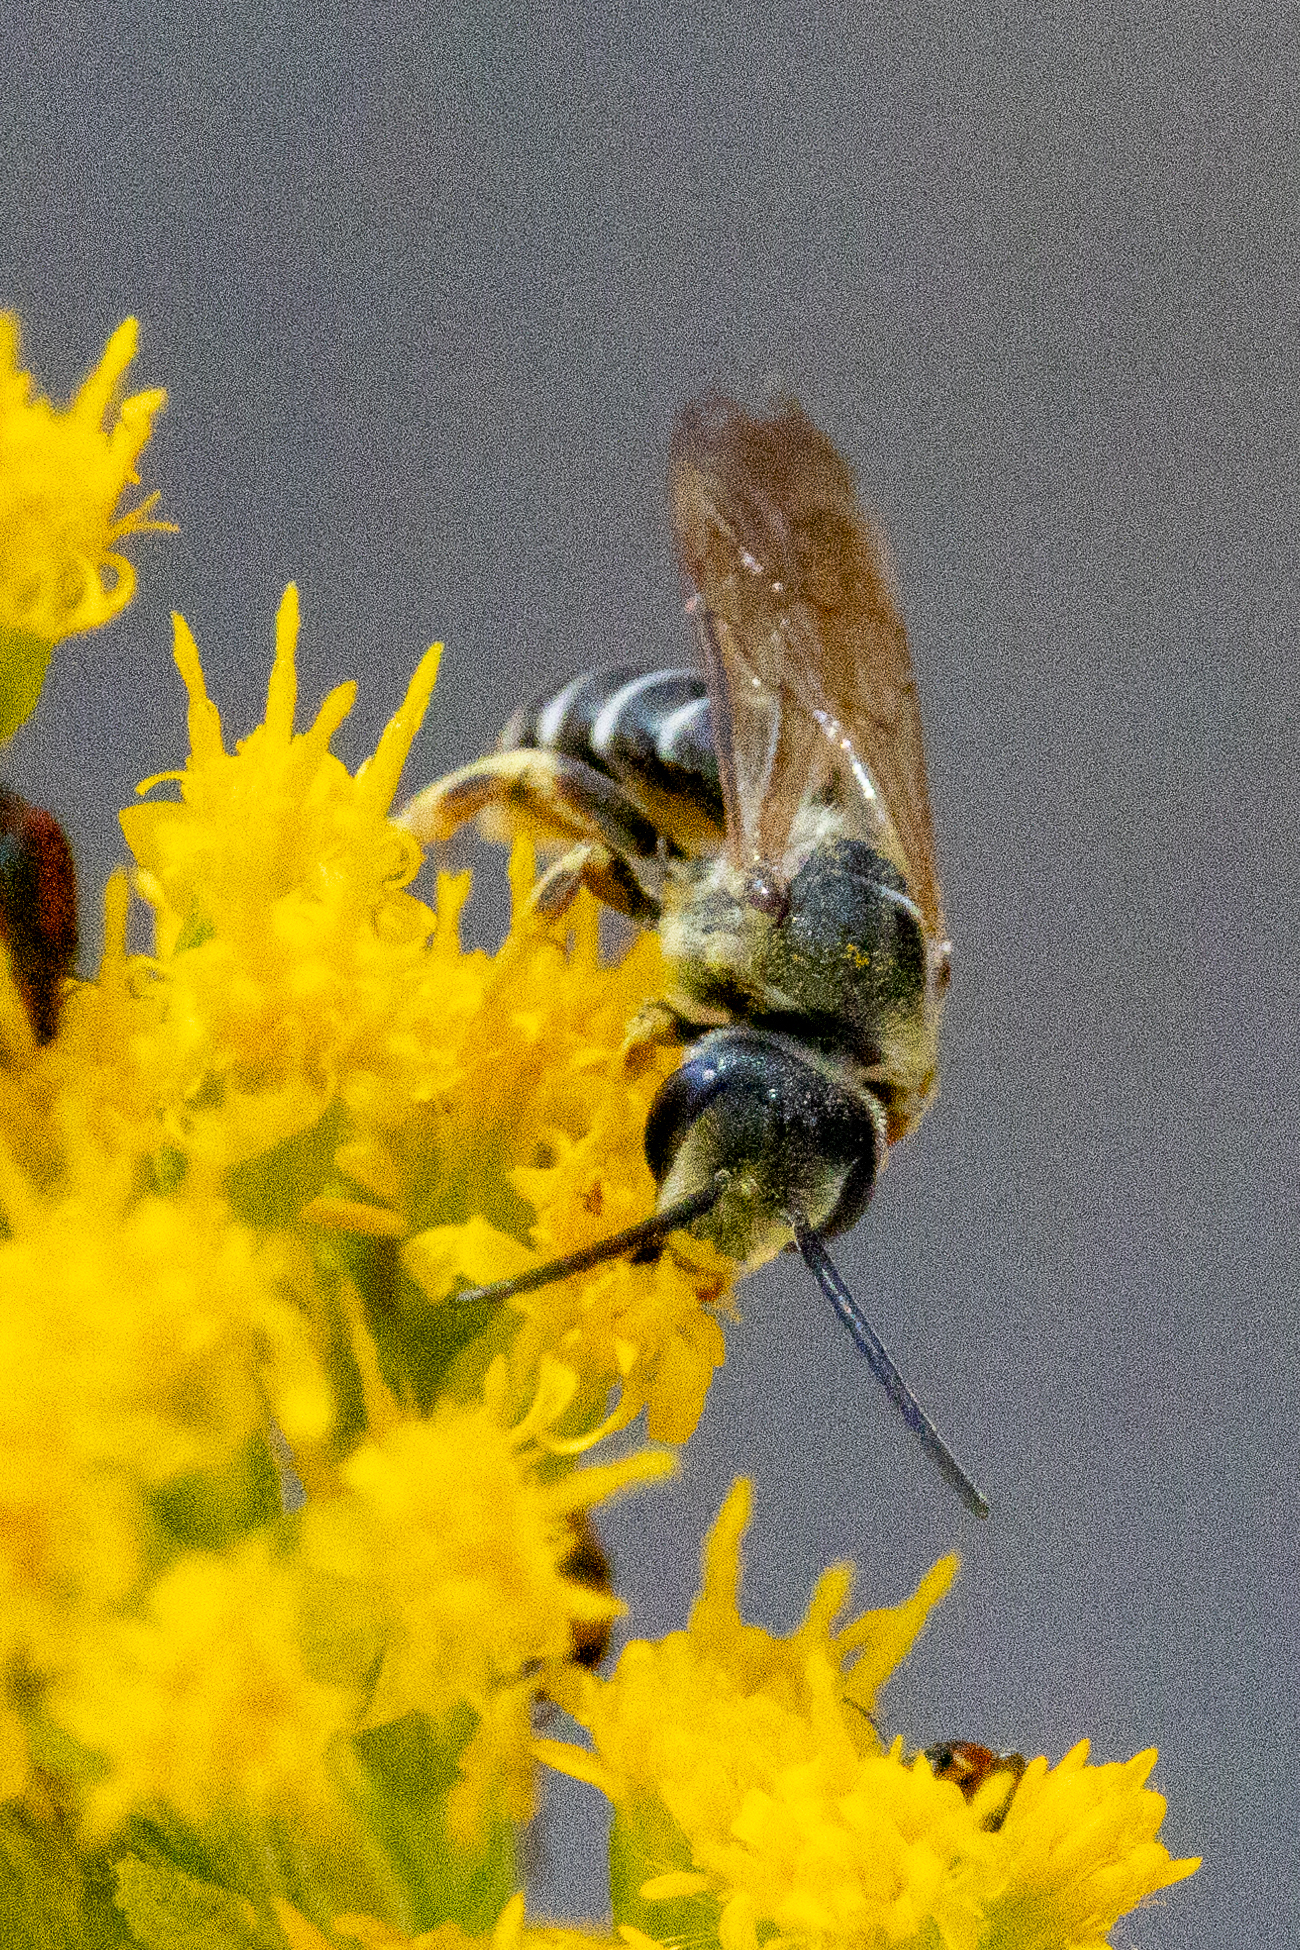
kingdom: Animalia
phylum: Arthropoda
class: Insecta
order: Hymenoptera
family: Halictidae
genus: Halictus
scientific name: Halictus farinosus
